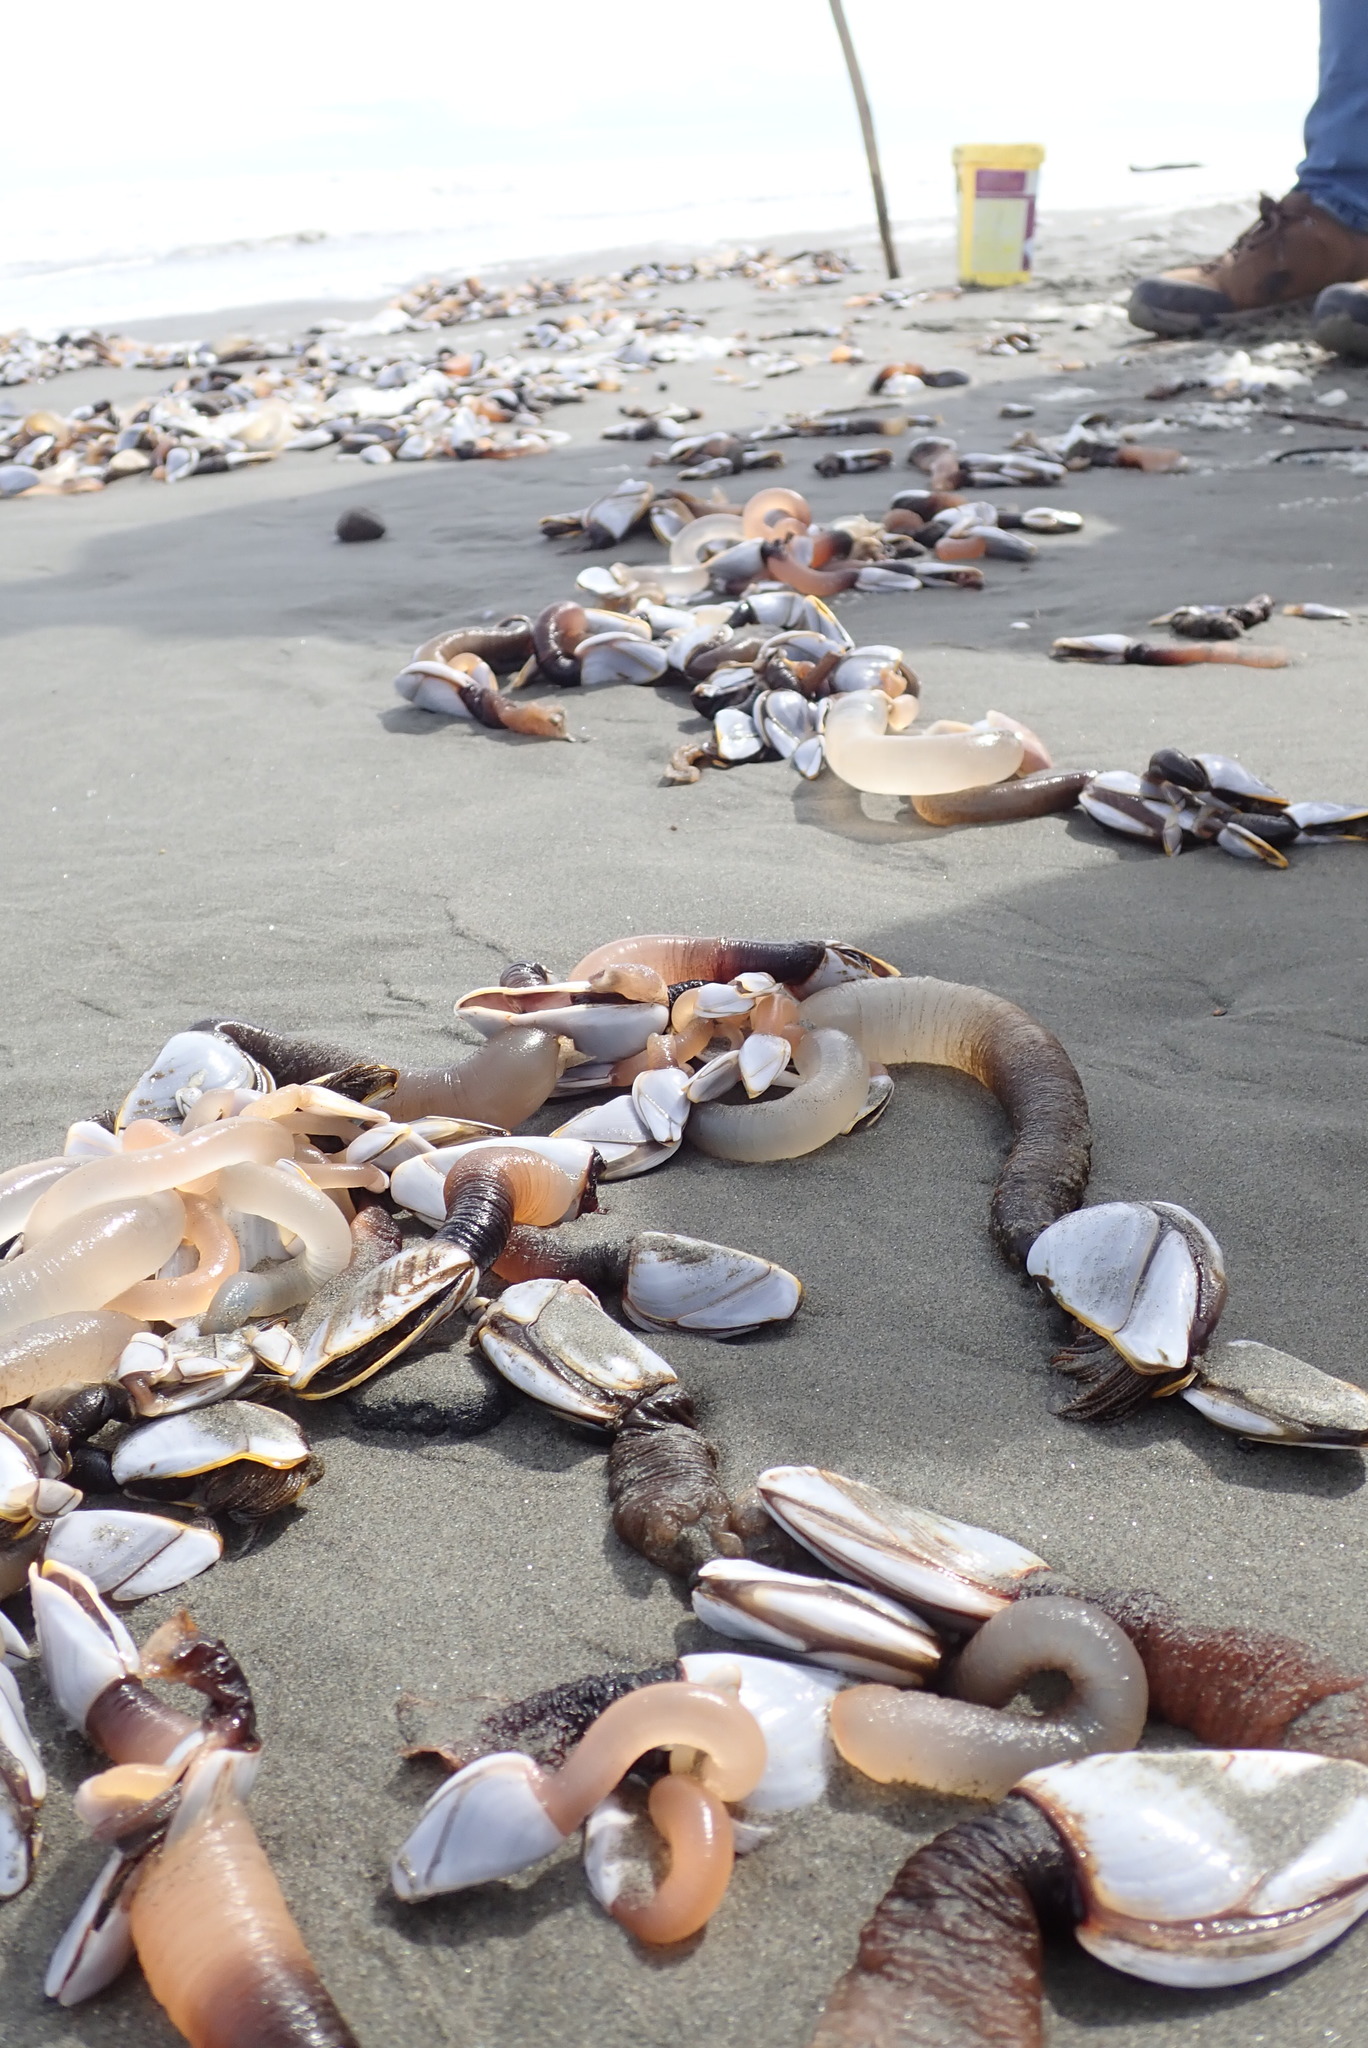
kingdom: Animalia
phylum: Arthropoda
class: Maxillopoda
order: Pedunculata
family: Lepadidae
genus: Lepas
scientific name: Lepas anatifera
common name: Common goose barnacle
